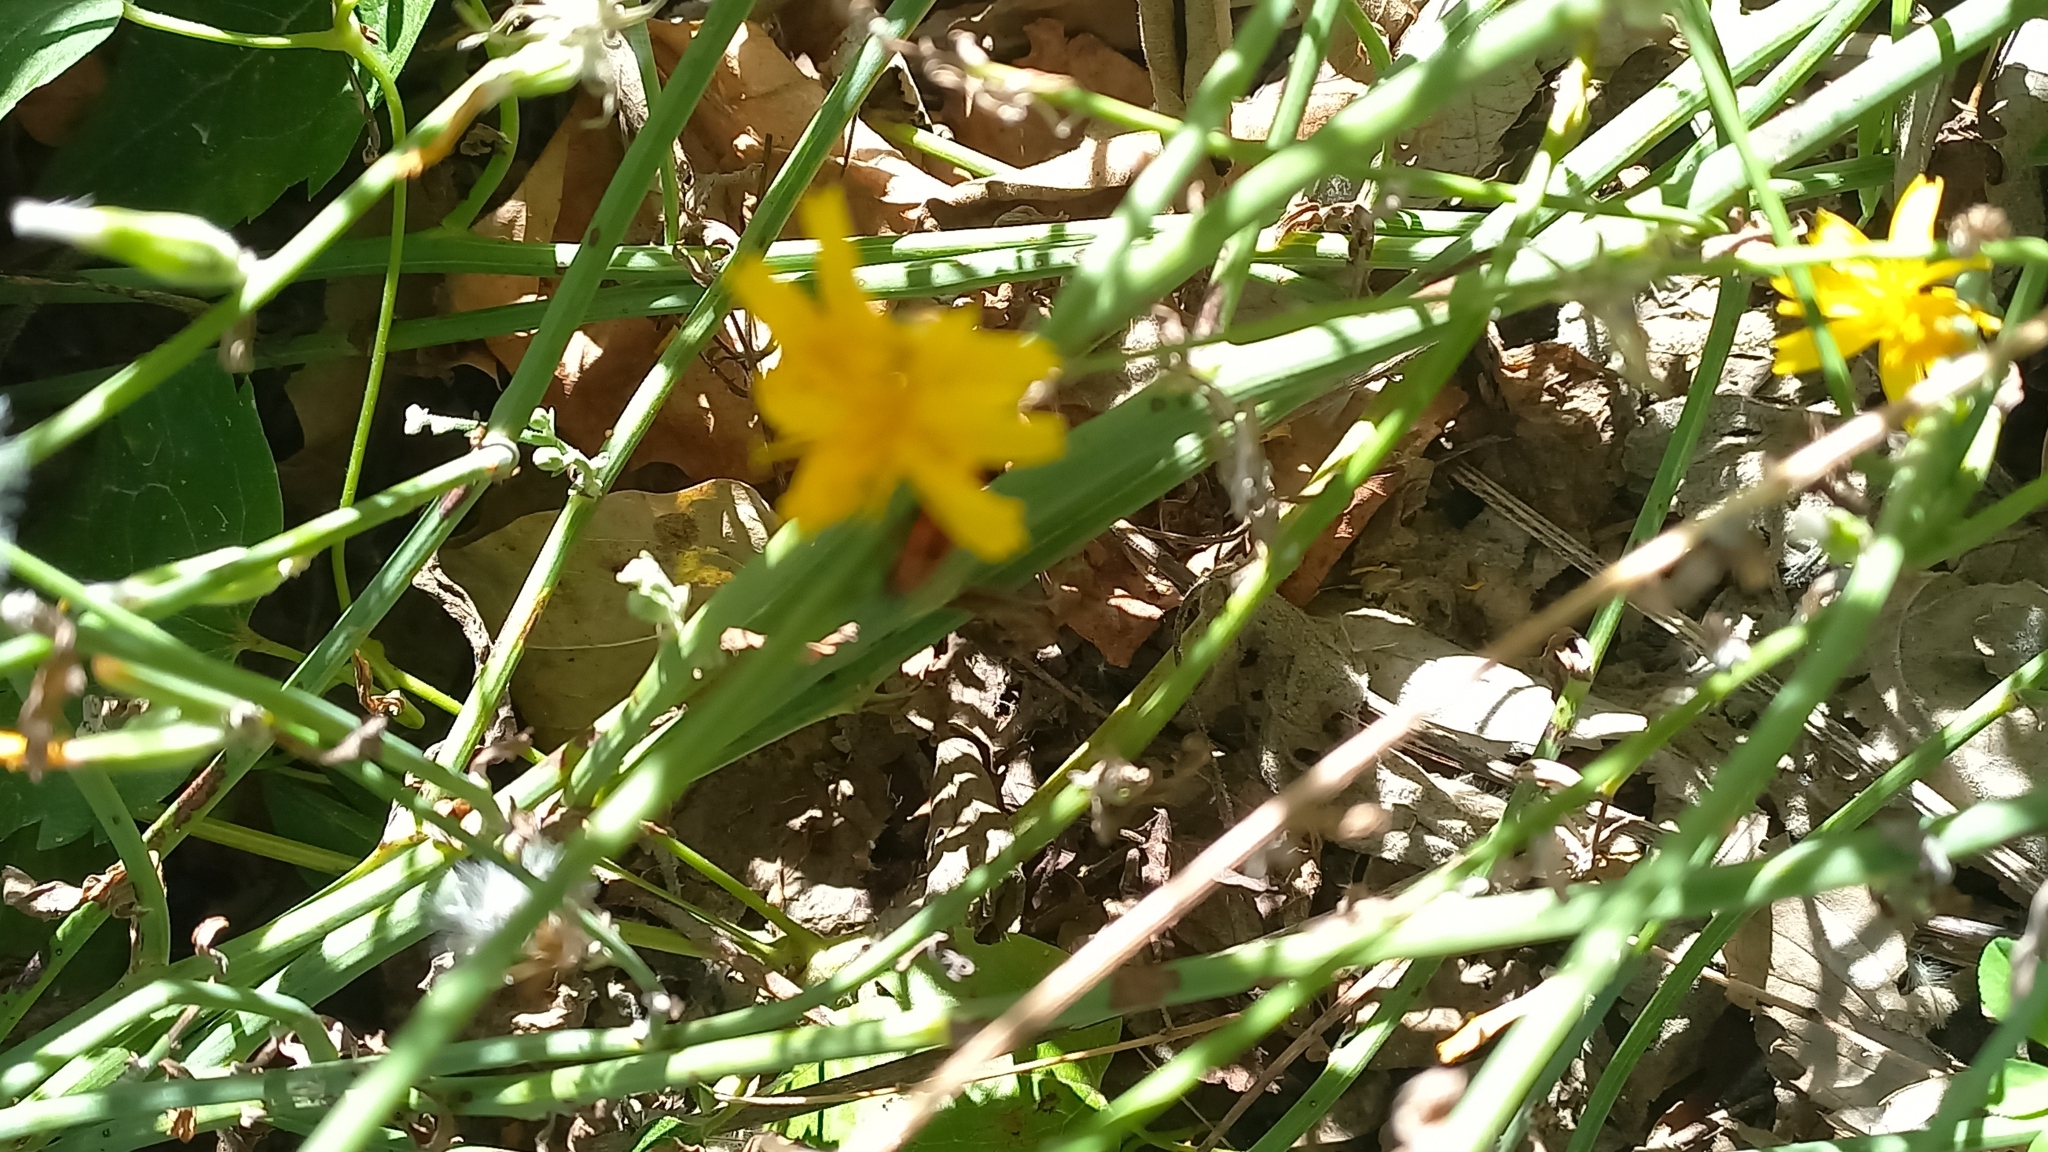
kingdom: Plantae
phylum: Tracheophyta
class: Magnoliopsida
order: Asterales
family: Asteraceae
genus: Chondrilla
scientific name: Chondrilla juncea
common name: Skeleton weed
